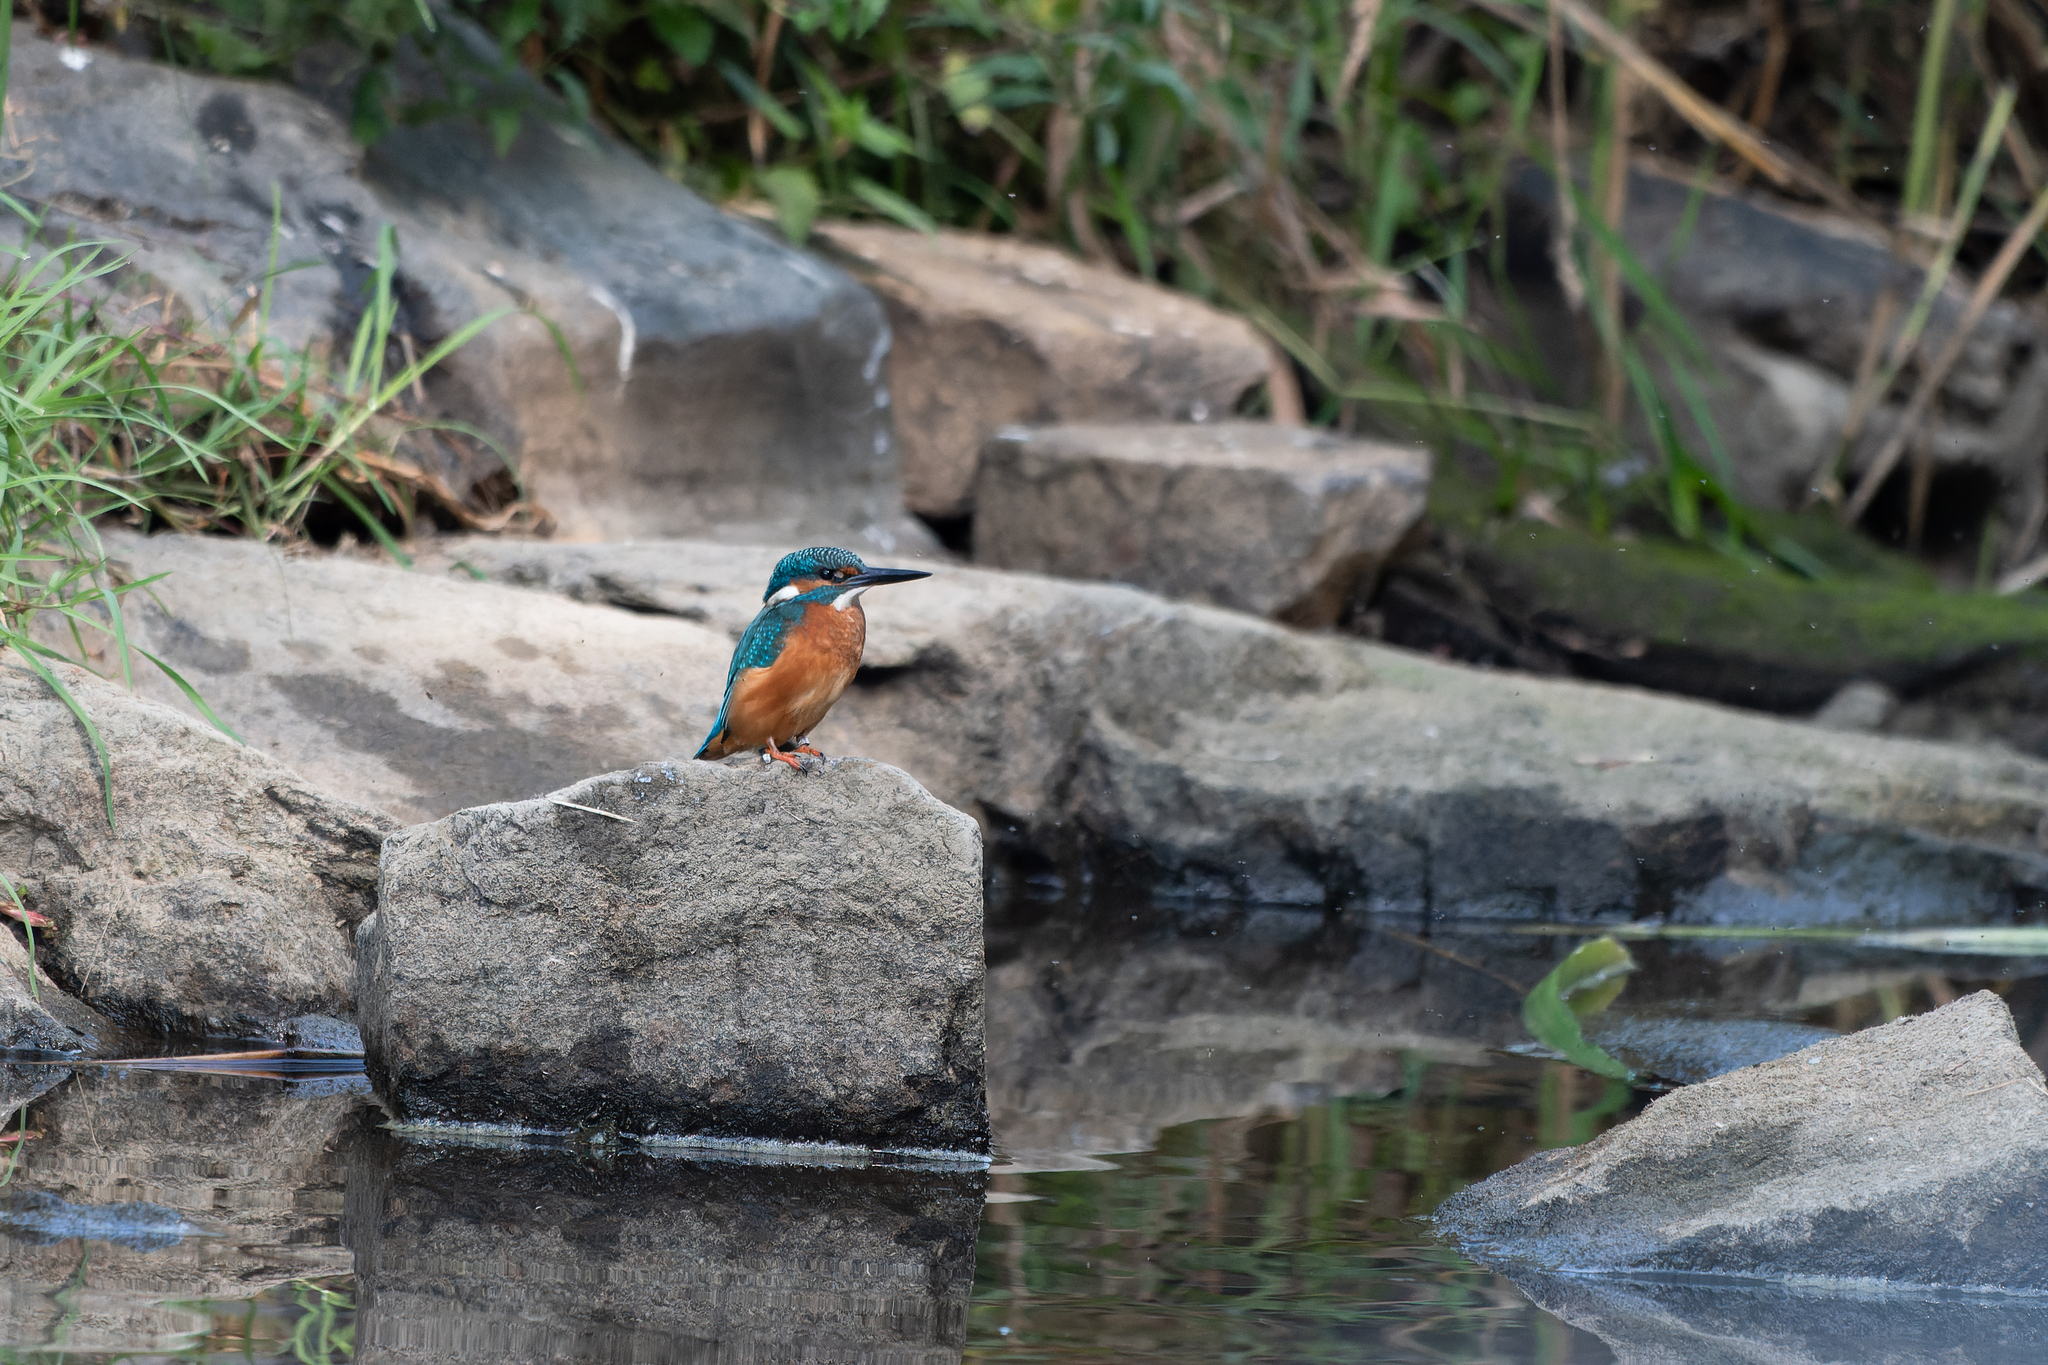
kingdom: Animalia
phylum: Chordata
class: Aves
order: Coraciiformes
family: Alcedinidae
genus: Alcedo
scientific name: Alcedo atthis
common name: Common kingfisher
